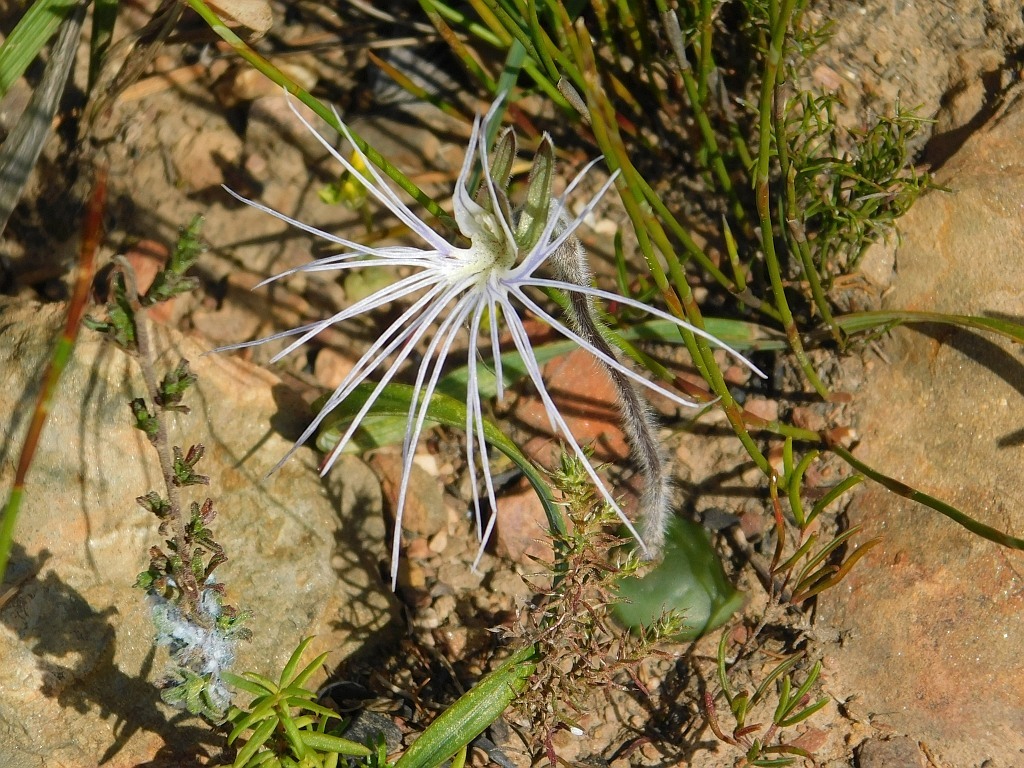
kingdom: Plantae
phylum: Tracheophyta
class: Liliopsida
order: Asparagales
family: Orchidaceae
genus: Holothrix
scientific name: Holothrix burmanniana
